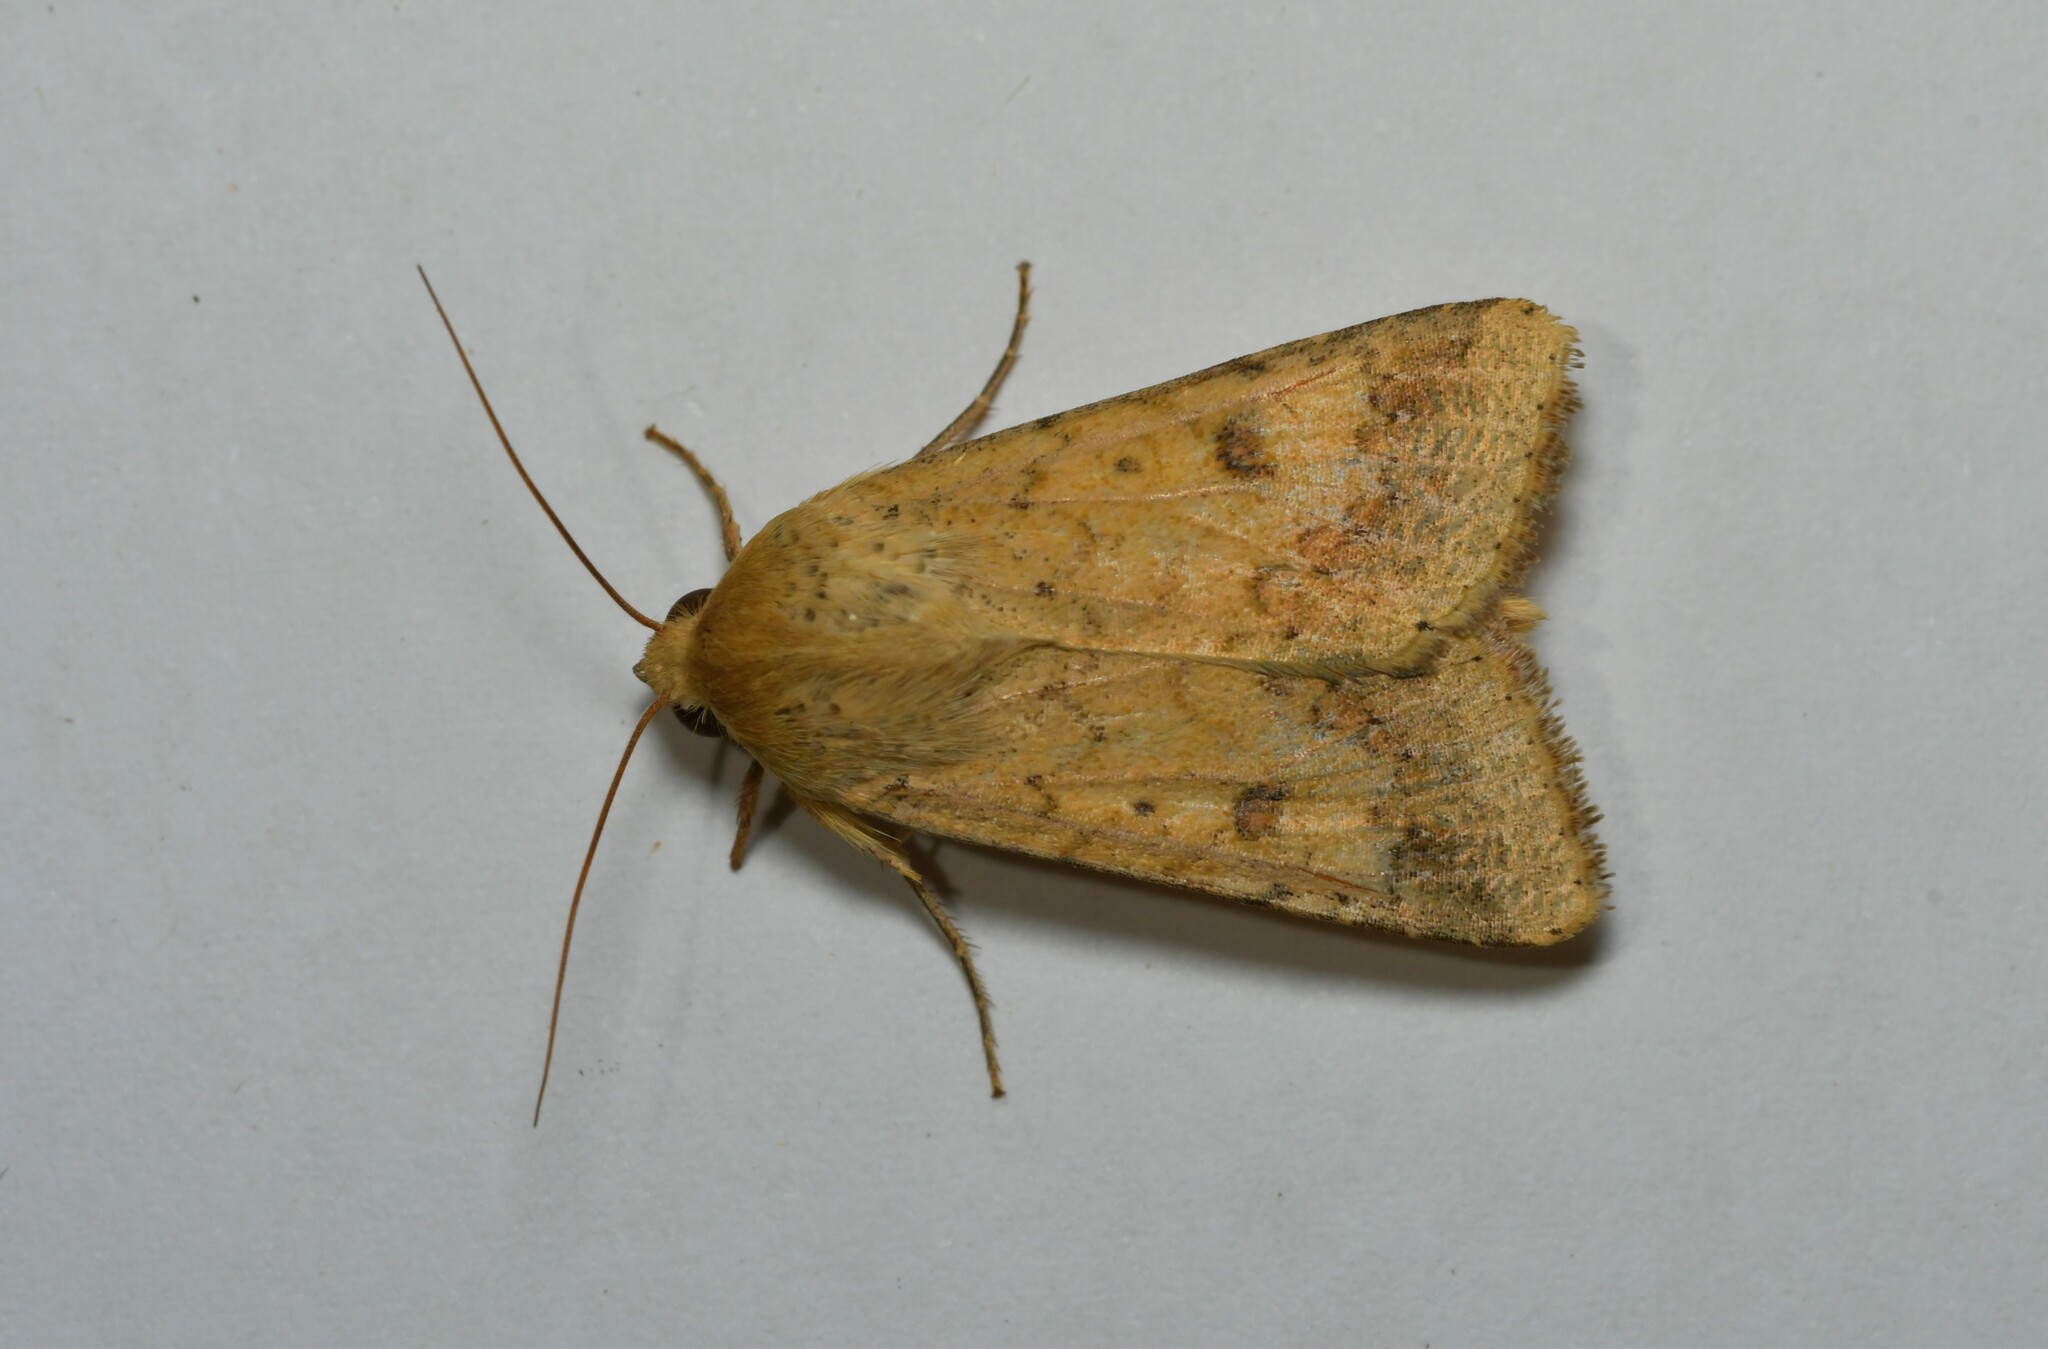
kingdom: Animalia
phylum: Arthropoda
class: Insecta
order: Lepidoptera
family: Noctuidae
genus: Helicoverpa
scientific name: Helicoverpa armigera
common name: Cotton bollworm
